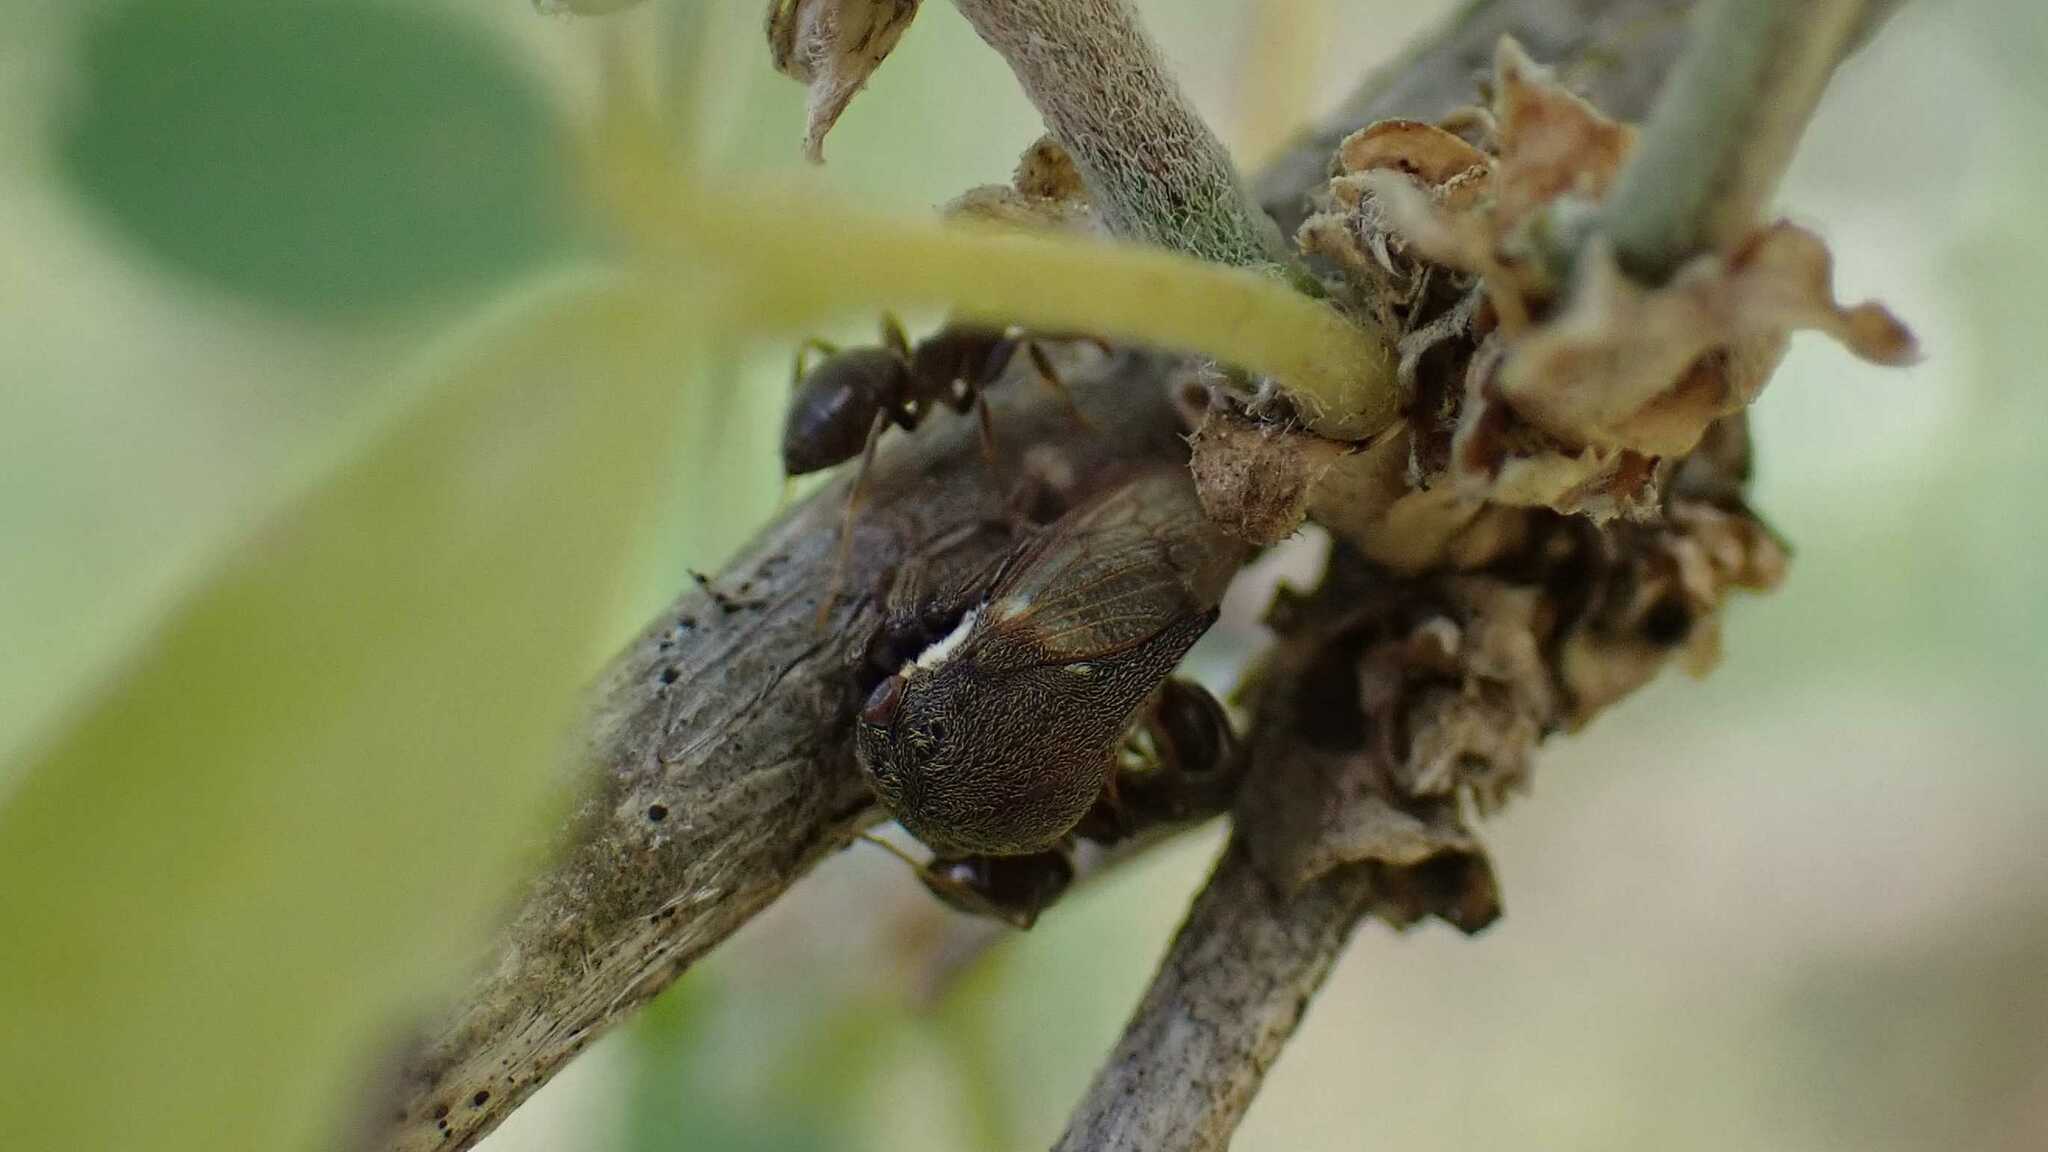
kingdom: Animalia
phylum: Arthropoda
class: Insecta
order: Hemiptera
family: Membracidae
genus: Gargara
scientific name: Gargara genistae
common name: Treehopper
